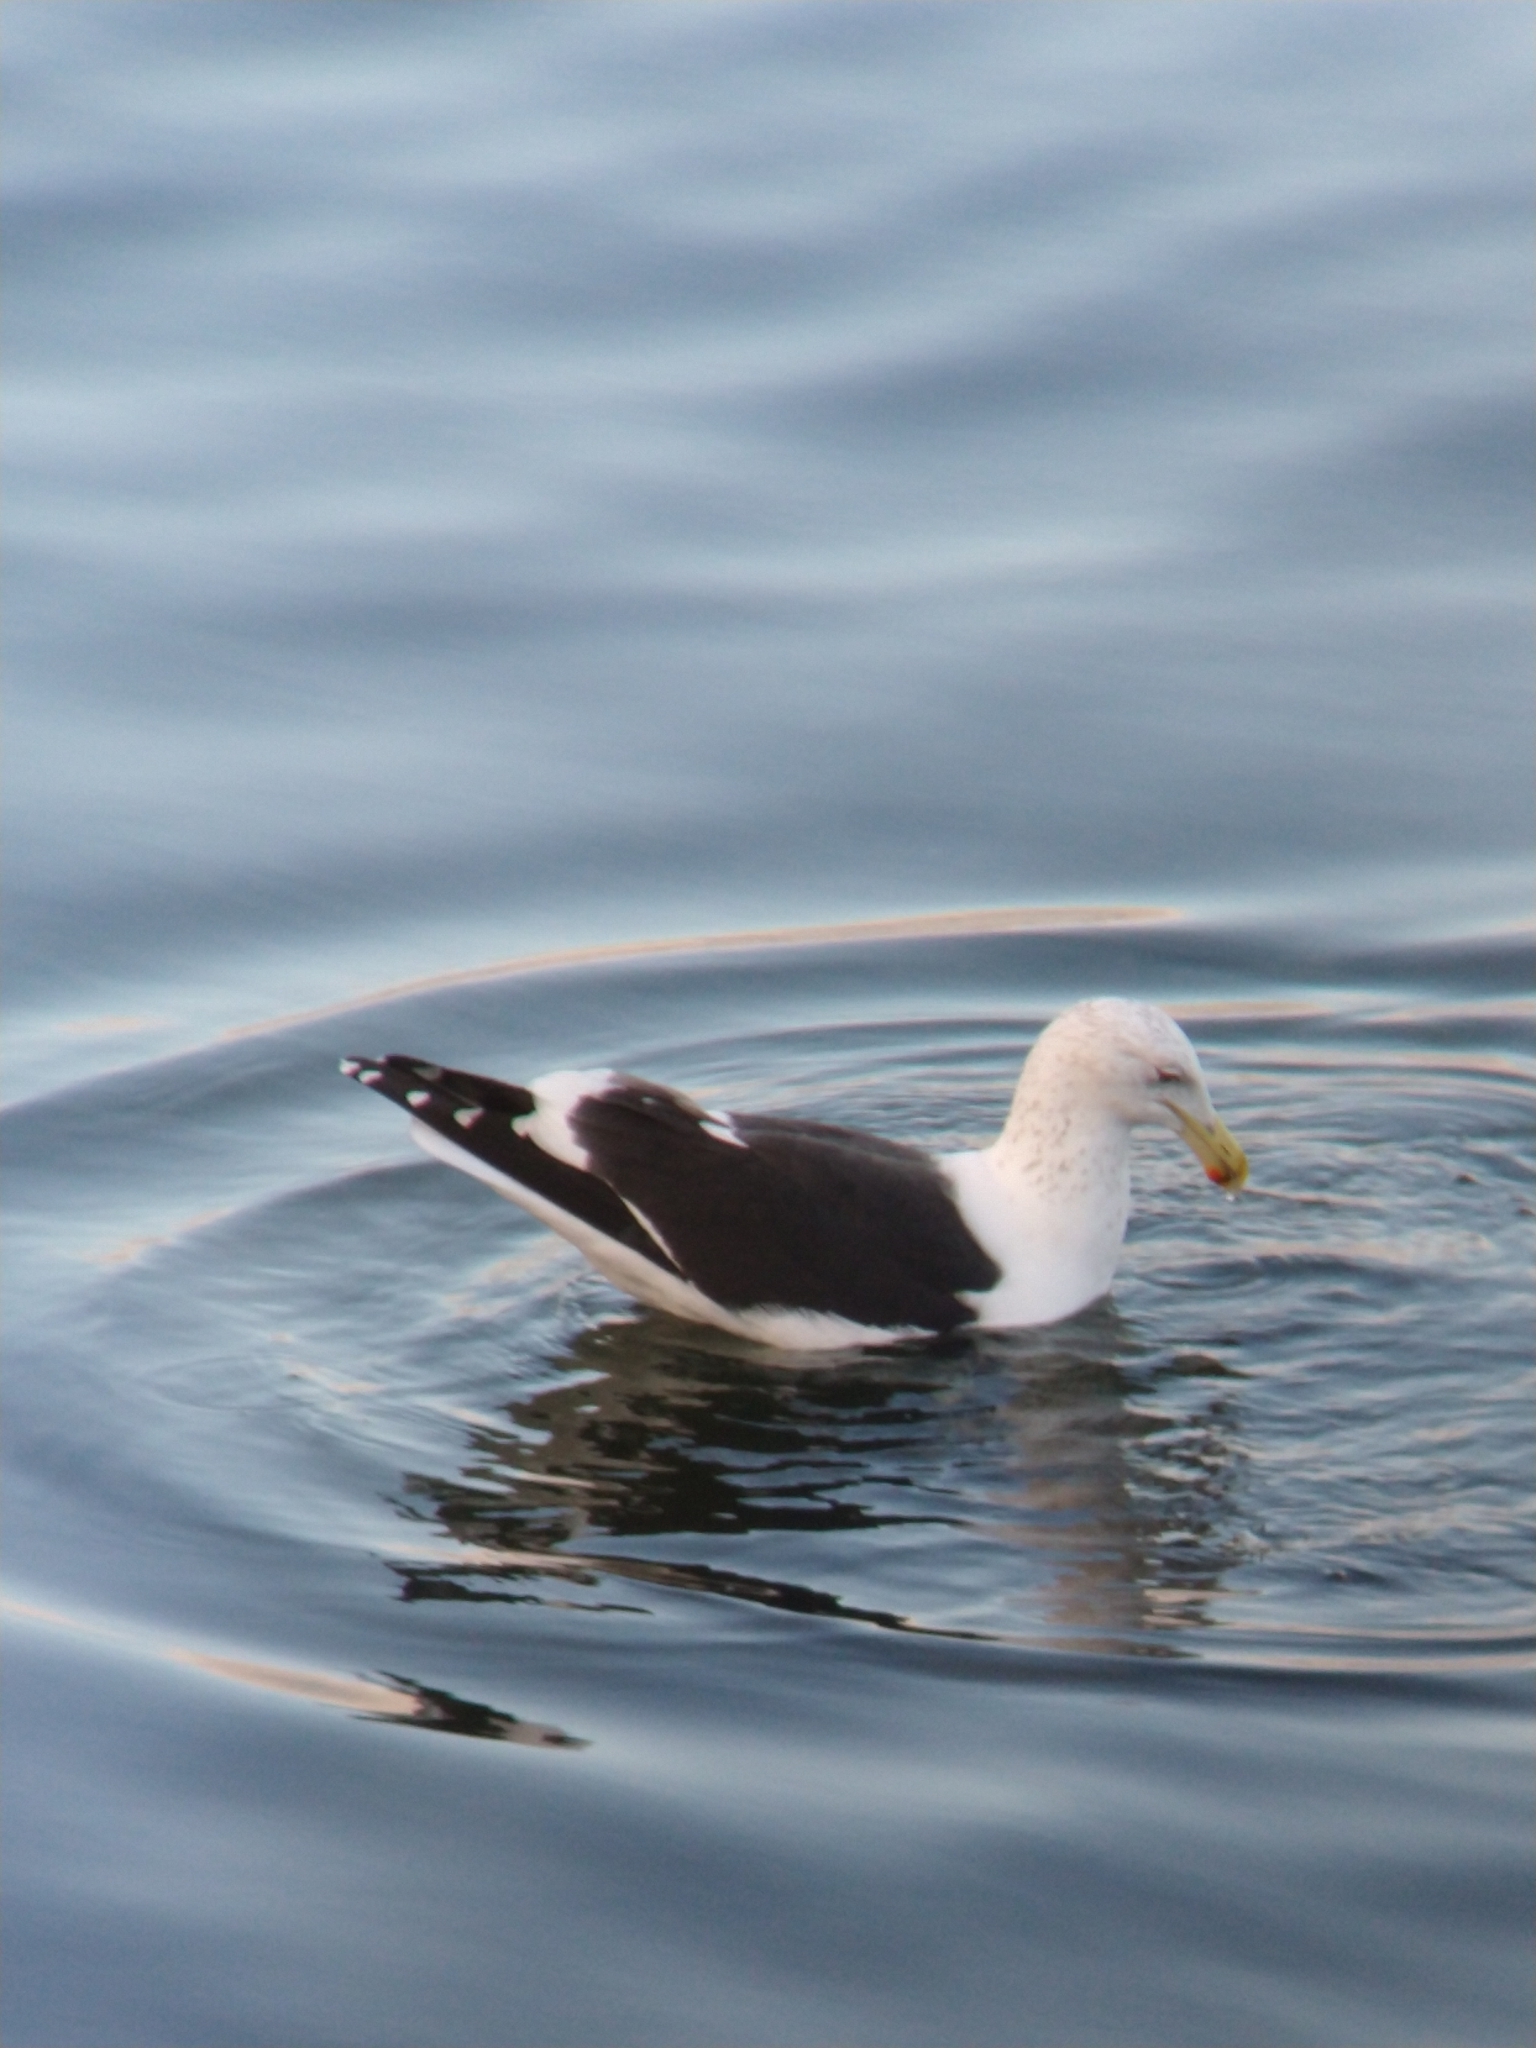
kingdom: Animalia
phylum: Chordata
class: Aves
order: Charadriiformes
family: Laridae
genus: Larus
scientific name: Larus dominicanus
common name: Kelp gull
